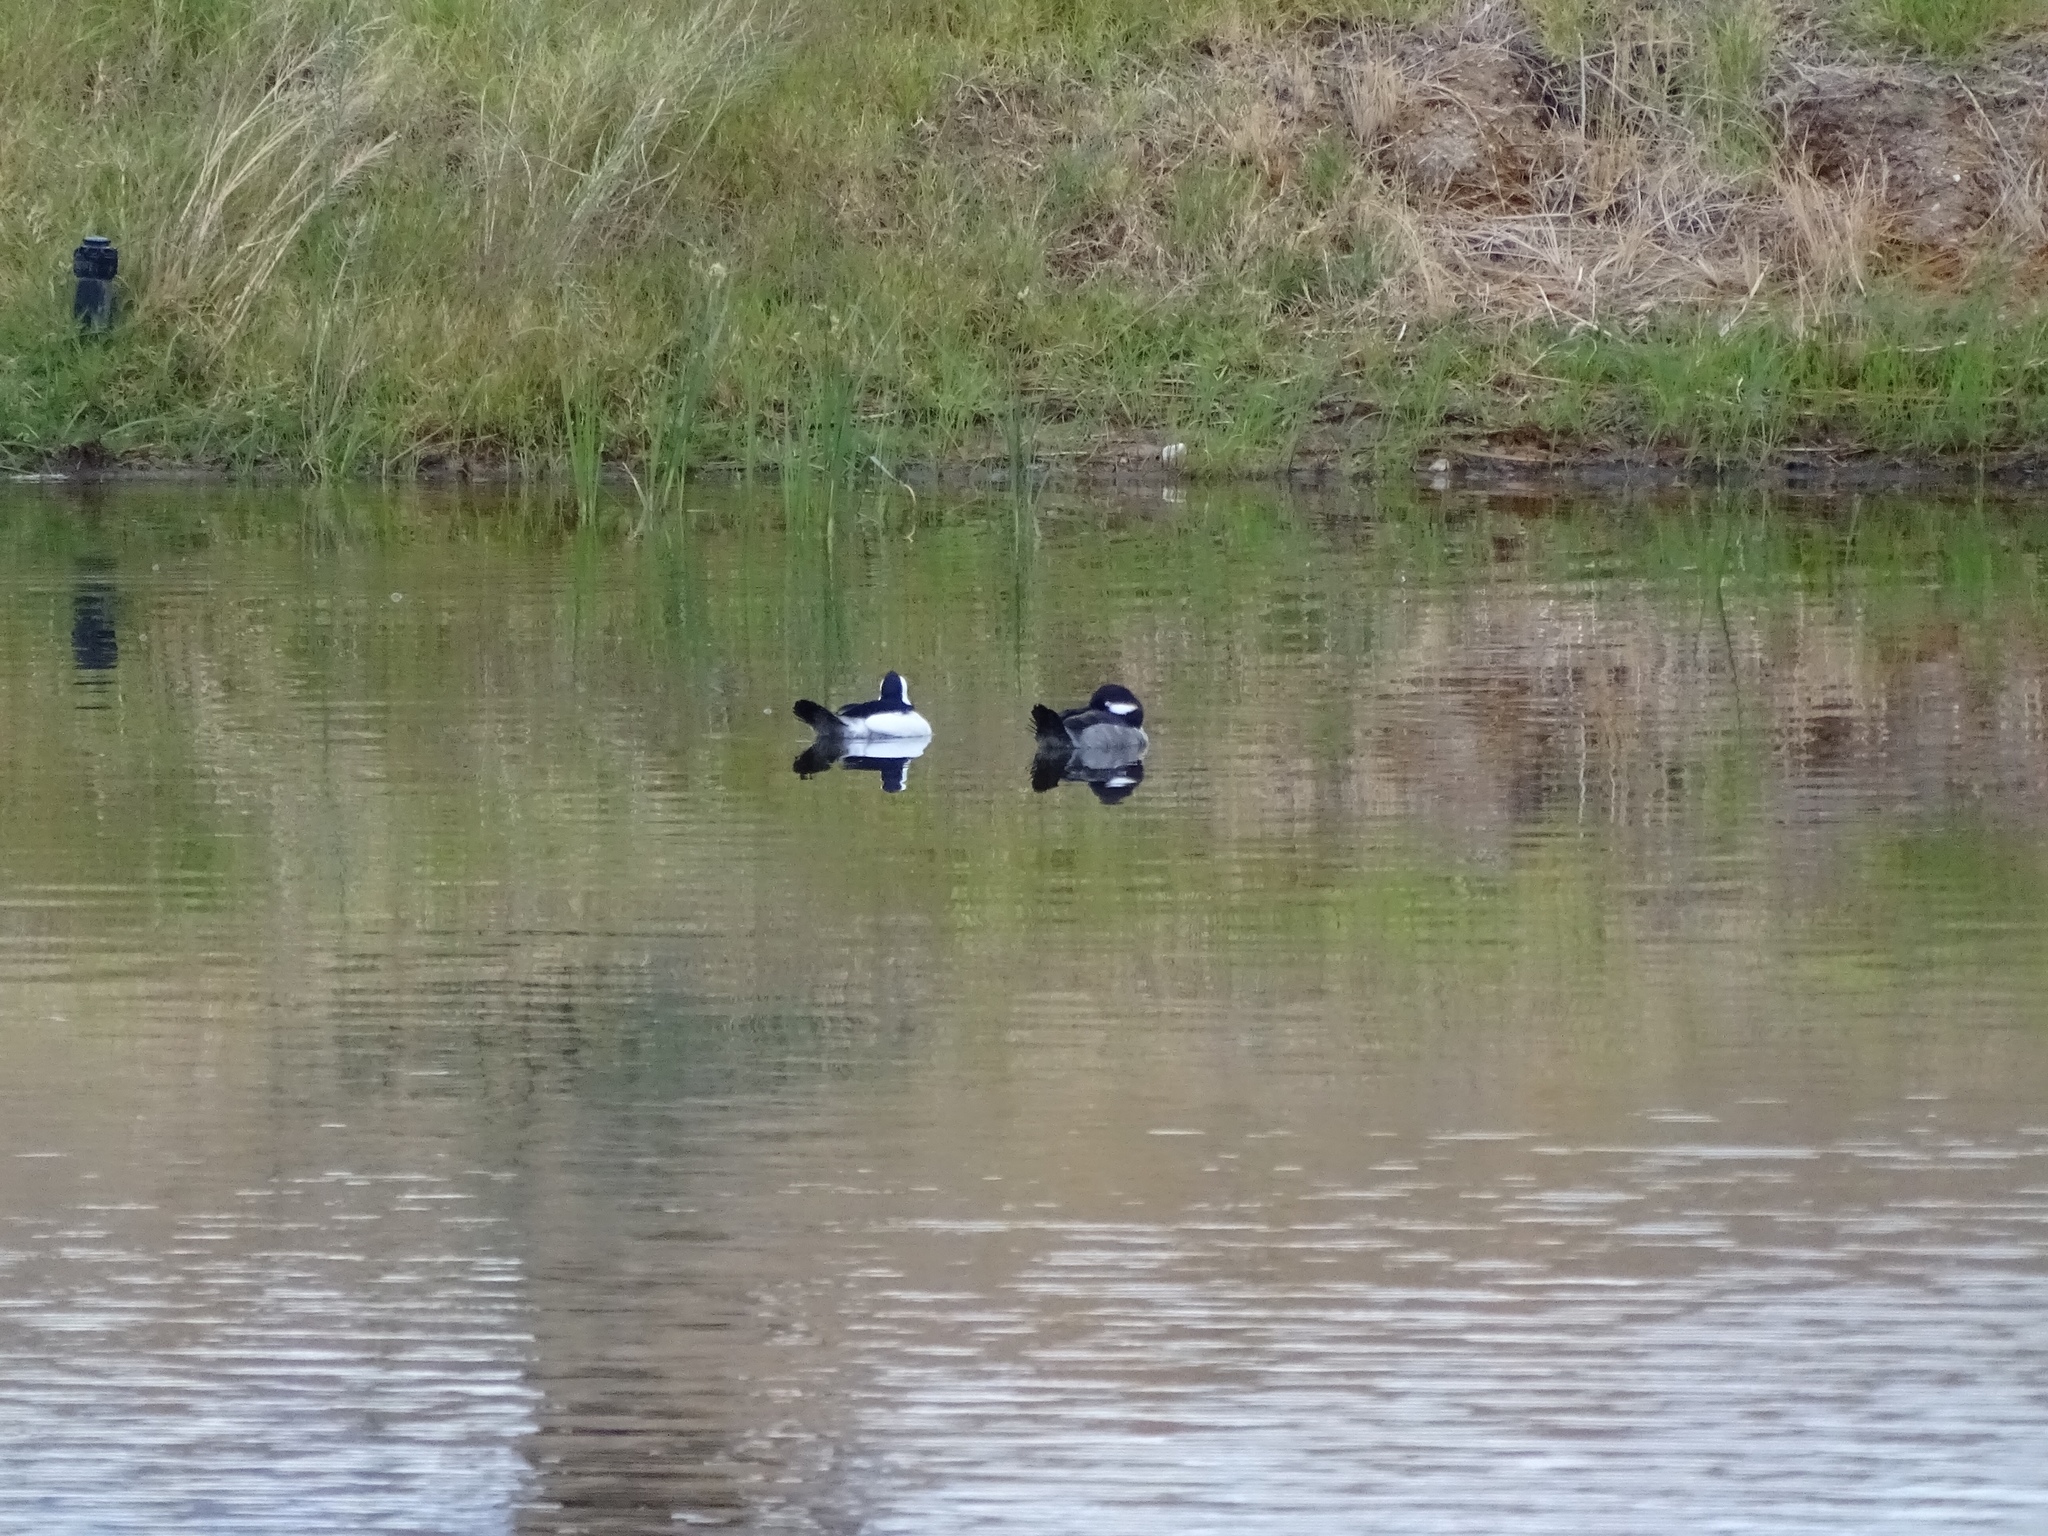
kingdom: Animalia
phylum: Chordata
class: Aves
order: Anseriformes
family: Anatidae
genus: Bucephala
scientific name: Bucephala albeola
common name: Bufflehead
